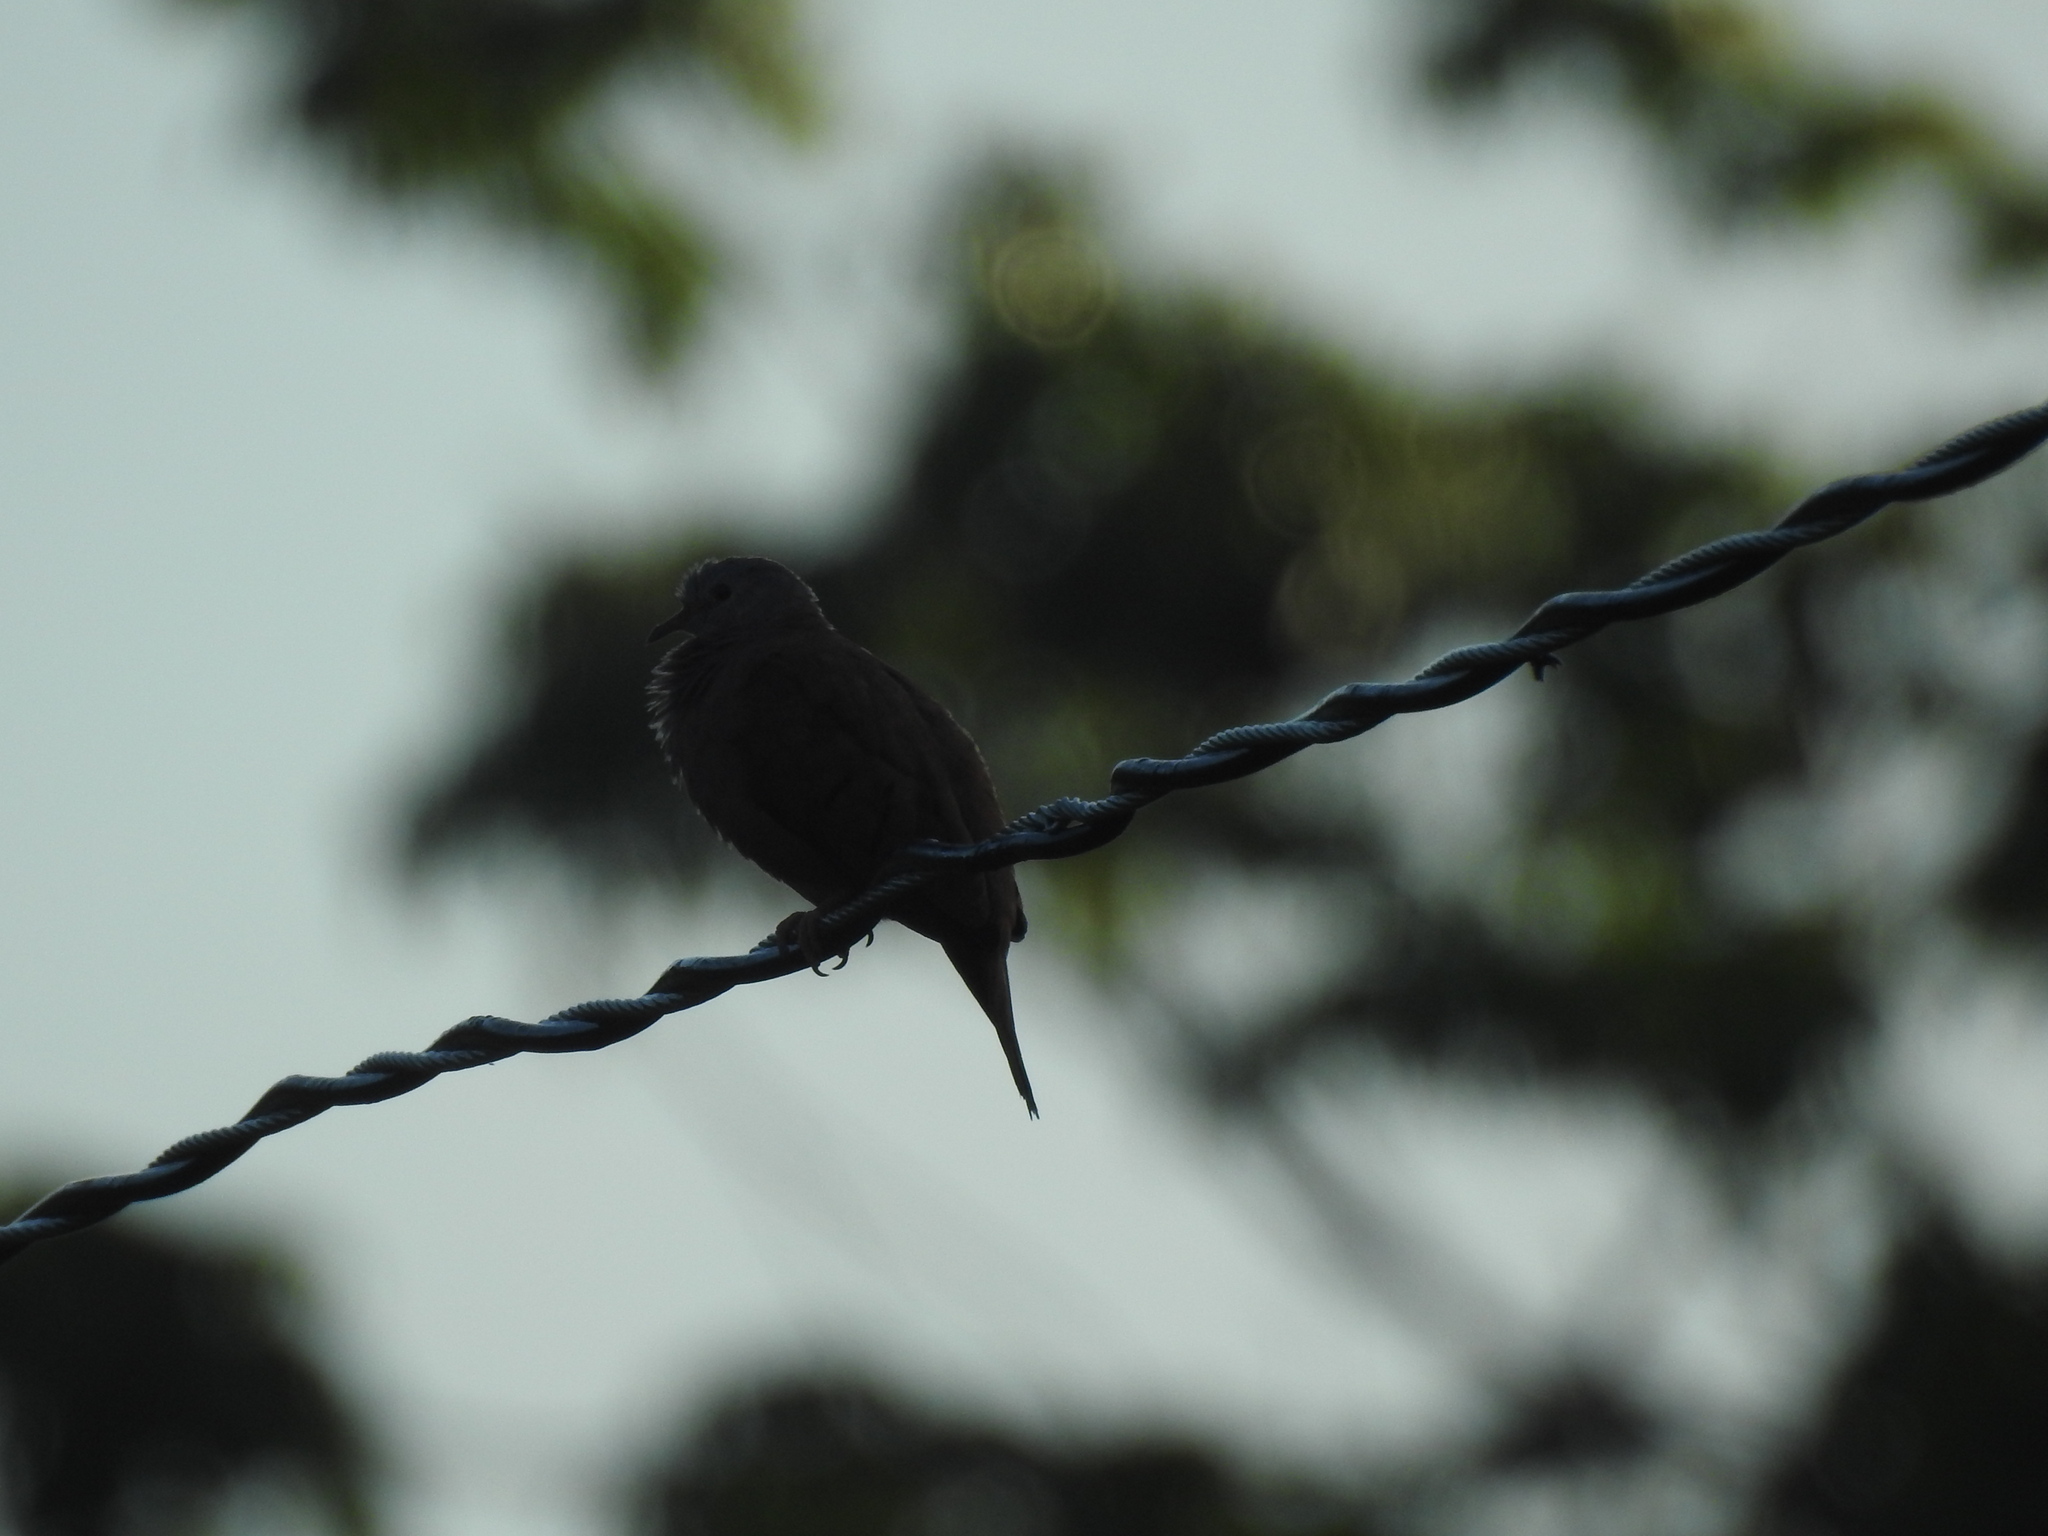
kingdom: Animalia
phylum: Chordata
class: Aves
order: Columbiformes
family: Columbidae
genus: Columbina
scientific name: Columbina talpacoti
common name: Ruddy ground dove
